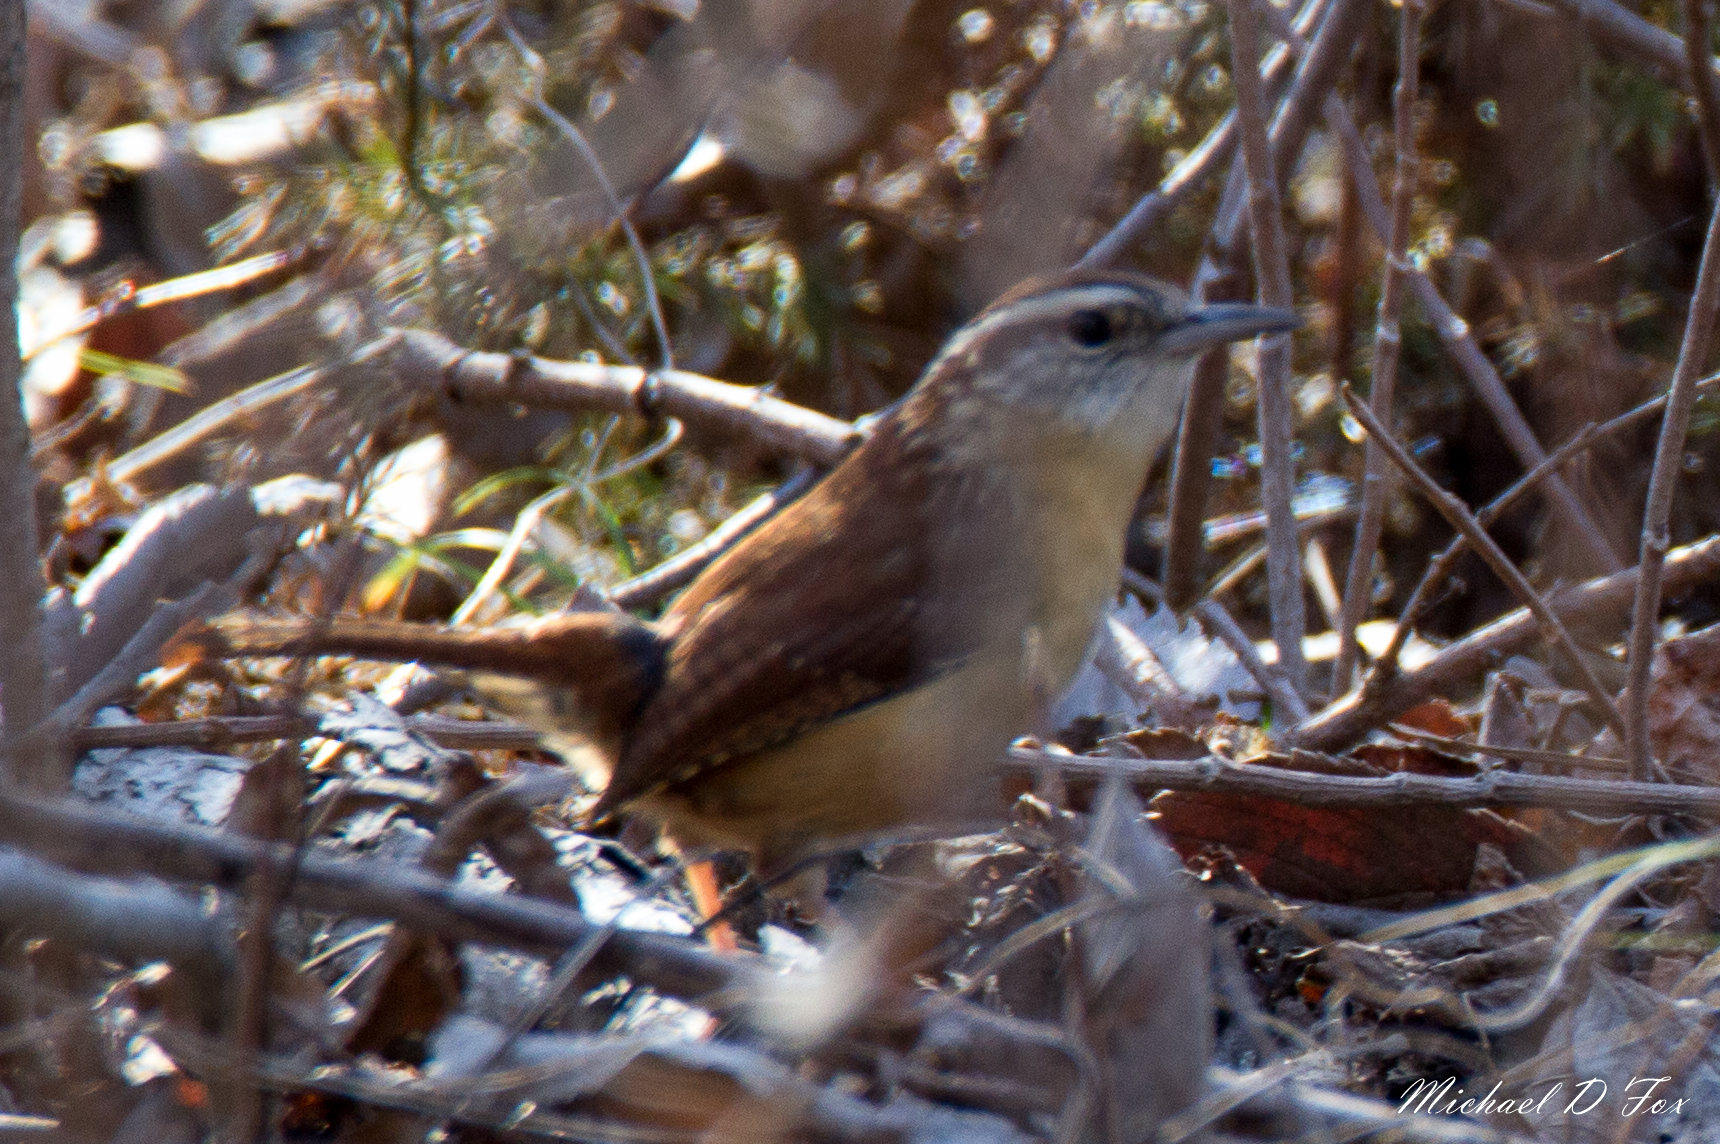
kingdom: Animalia
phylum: Chordata
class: Aves
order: Passeriformes
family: Troglodytidae
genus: Thryothorus
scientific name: Thryothorus ludovicianus
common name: Carolina wren
